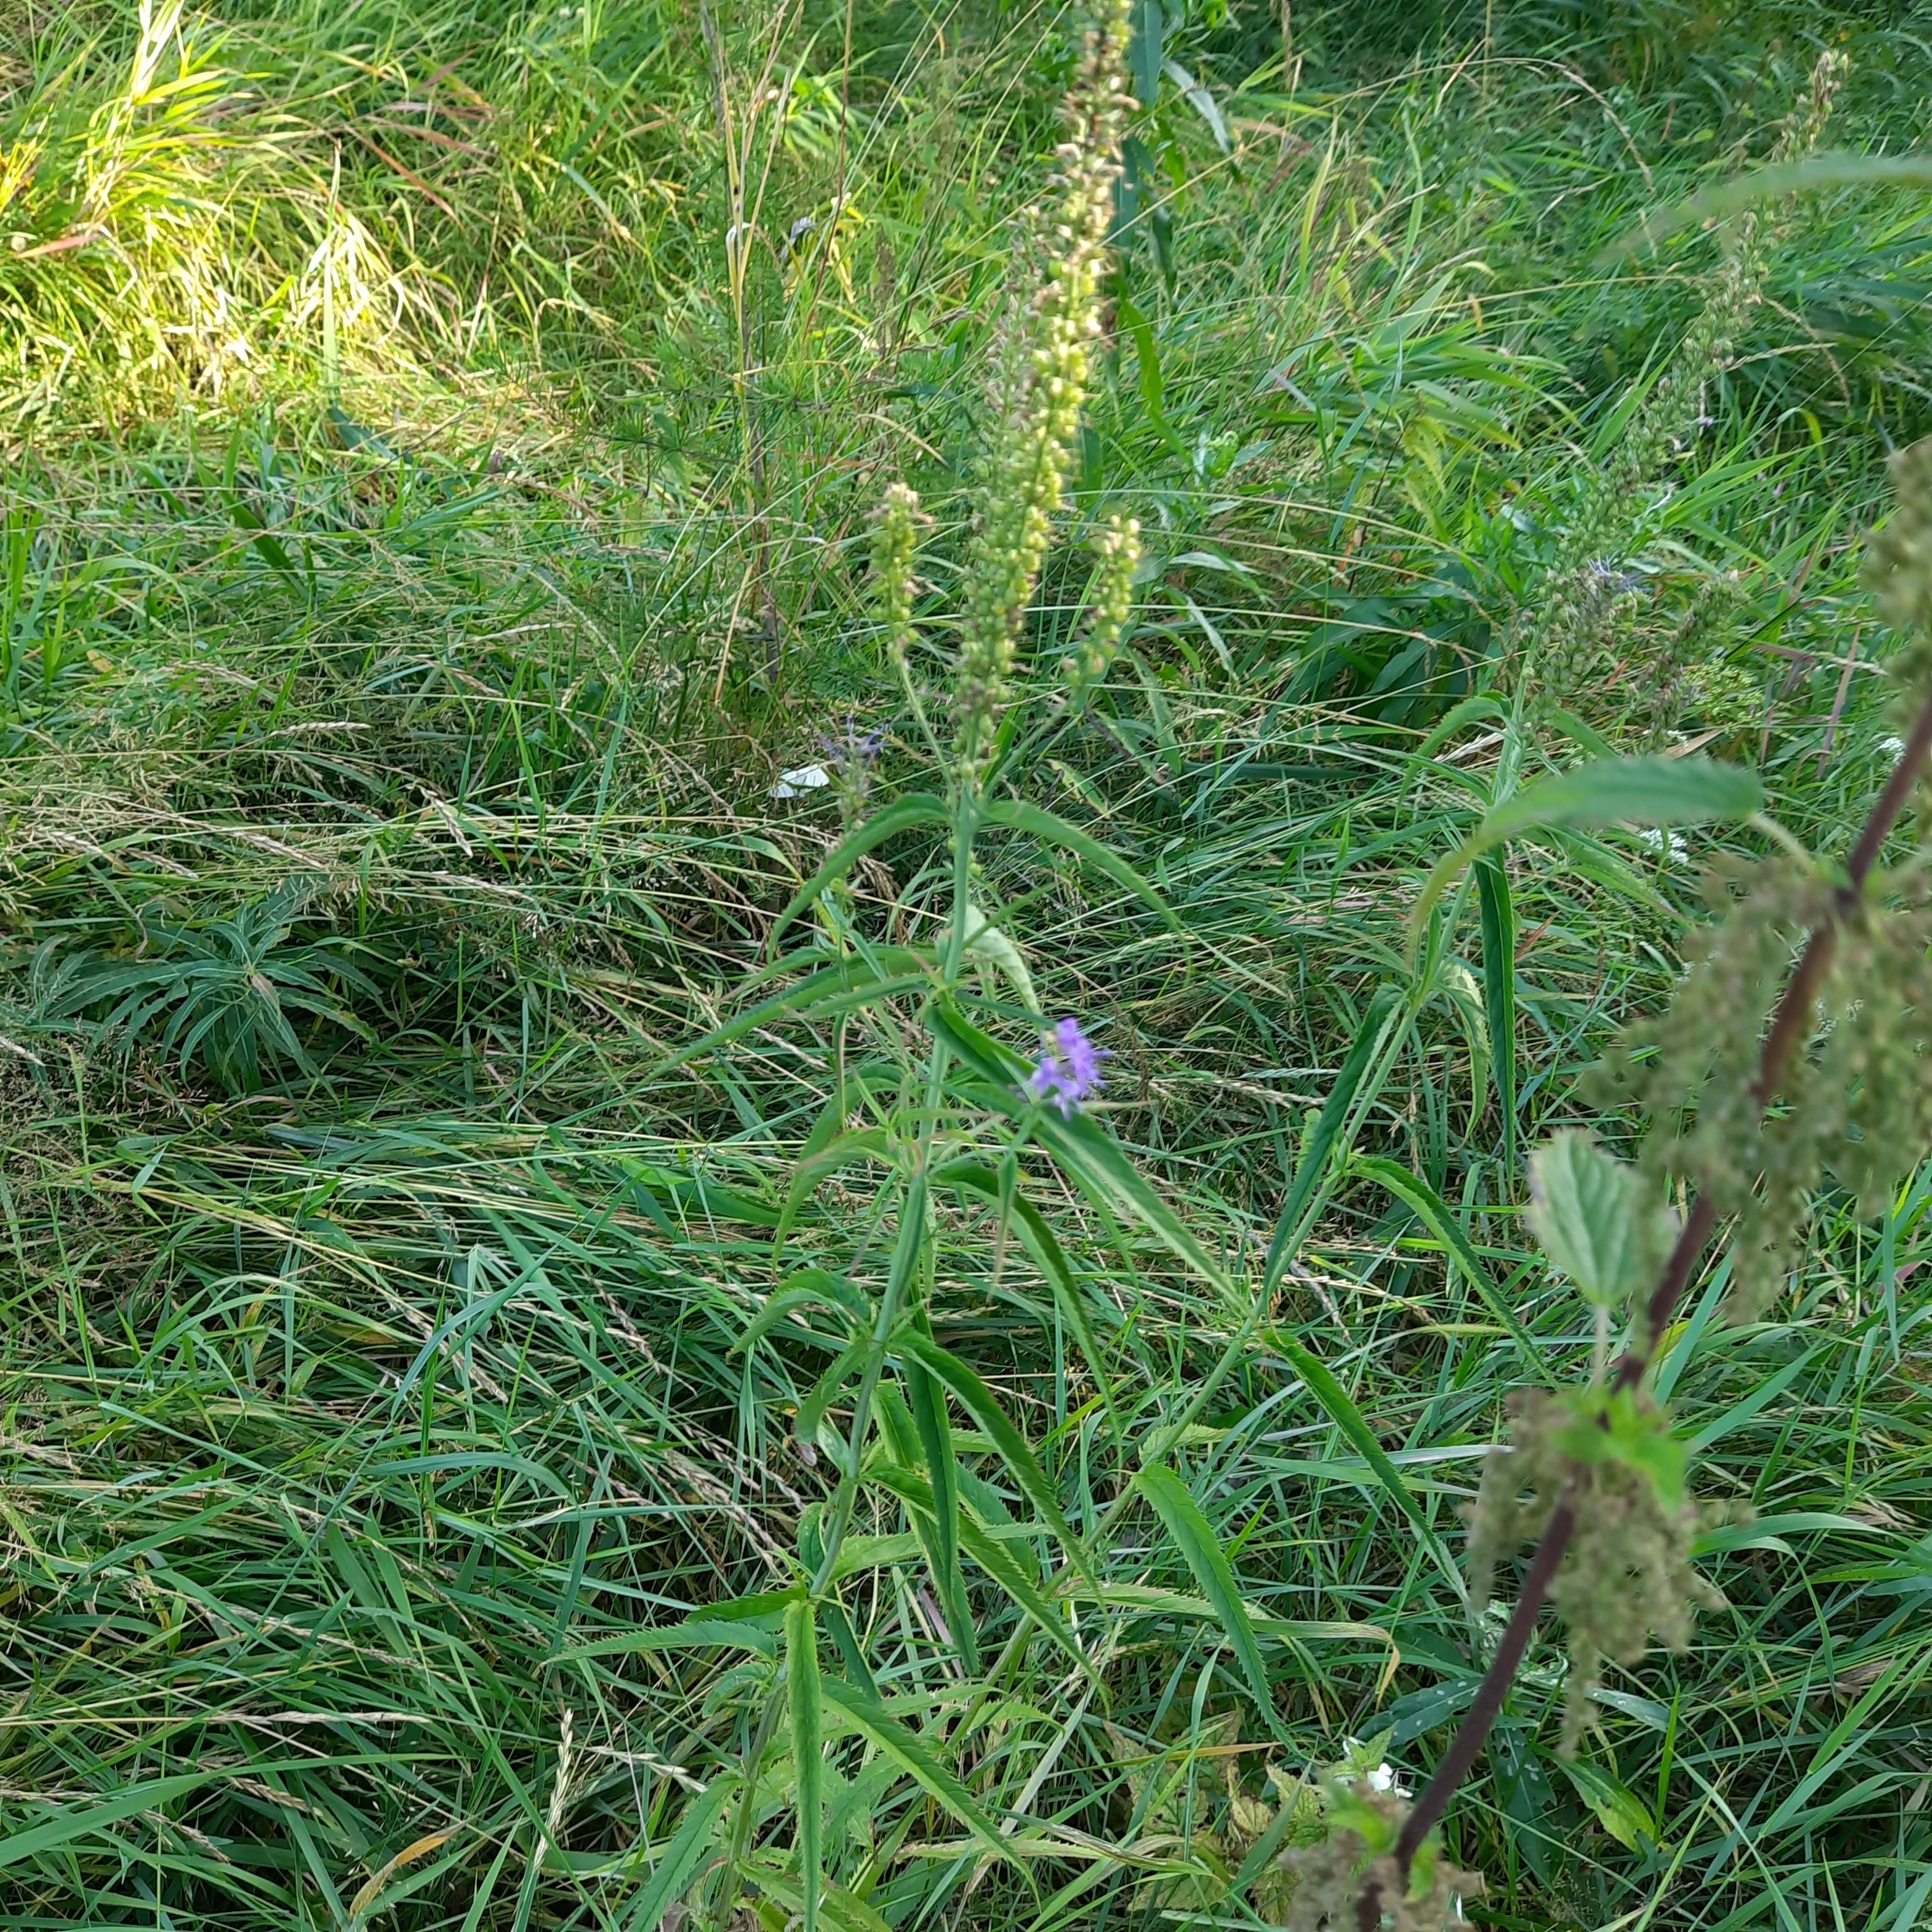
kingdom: Plantae
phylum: Tracheophyta
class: Magnoliopsida
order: Lamiales
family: Plantaginaceae
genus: Veronica
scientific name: Veronica longifolia
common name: Garden speedwell
